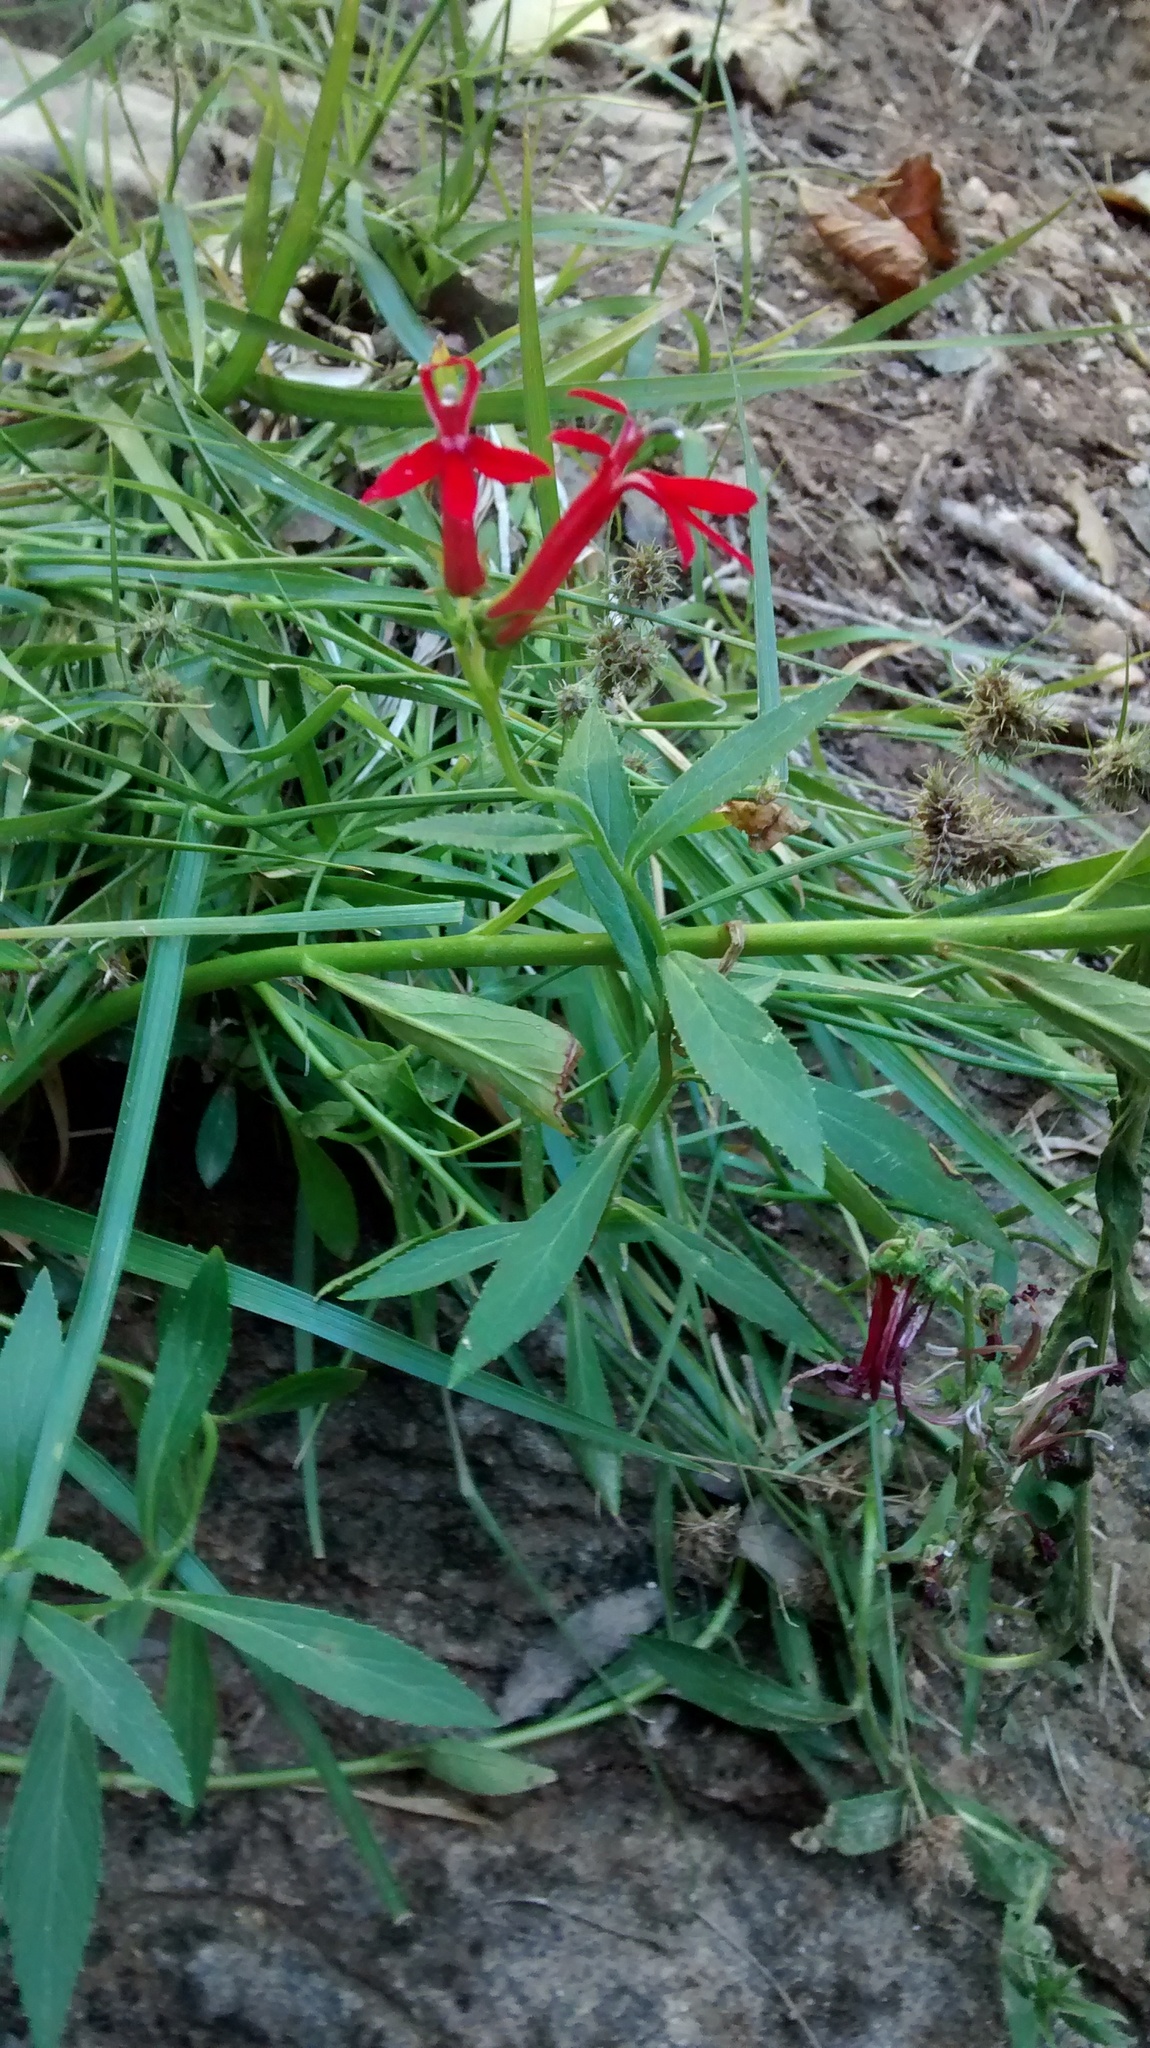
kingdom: Plantae
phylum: Tracheophyta
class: Magnoliopsida
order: Asterales
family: Campanulaceae
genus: Lobelia
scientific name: Lobelia cardinalis
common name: Cardinal flower
